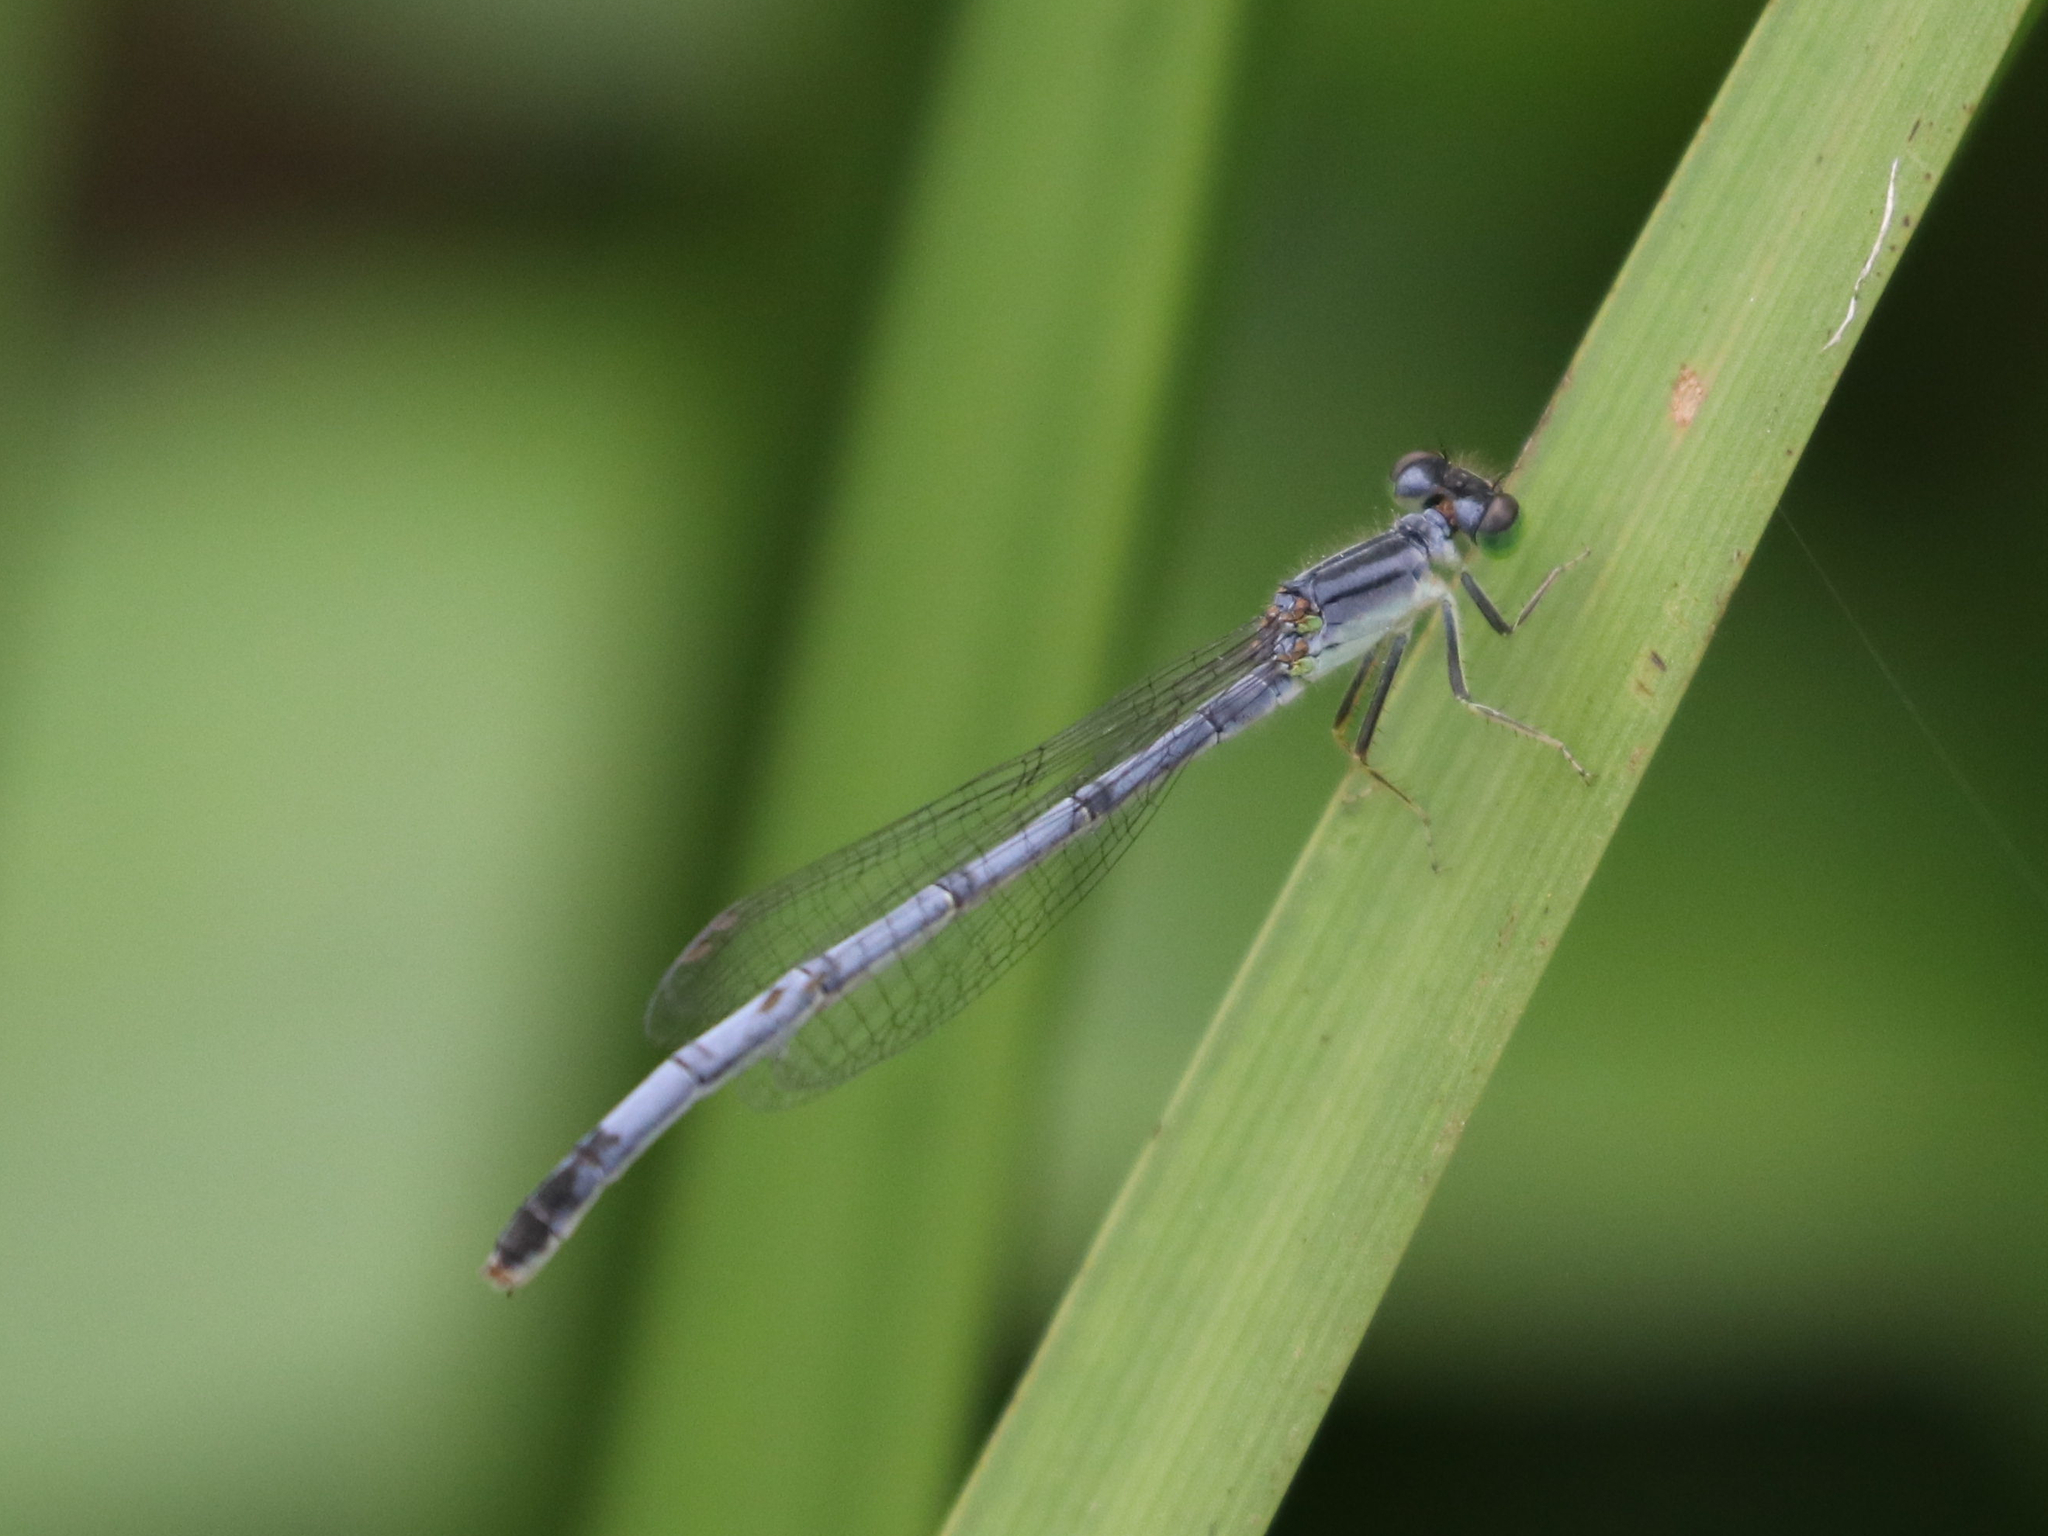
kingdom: Animalia
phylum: Arthropoda
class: Insecta
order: Odonata
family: Coenagrionidae
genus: Ischnura
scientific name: Ischnura verticalis
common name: Eastern forktail
